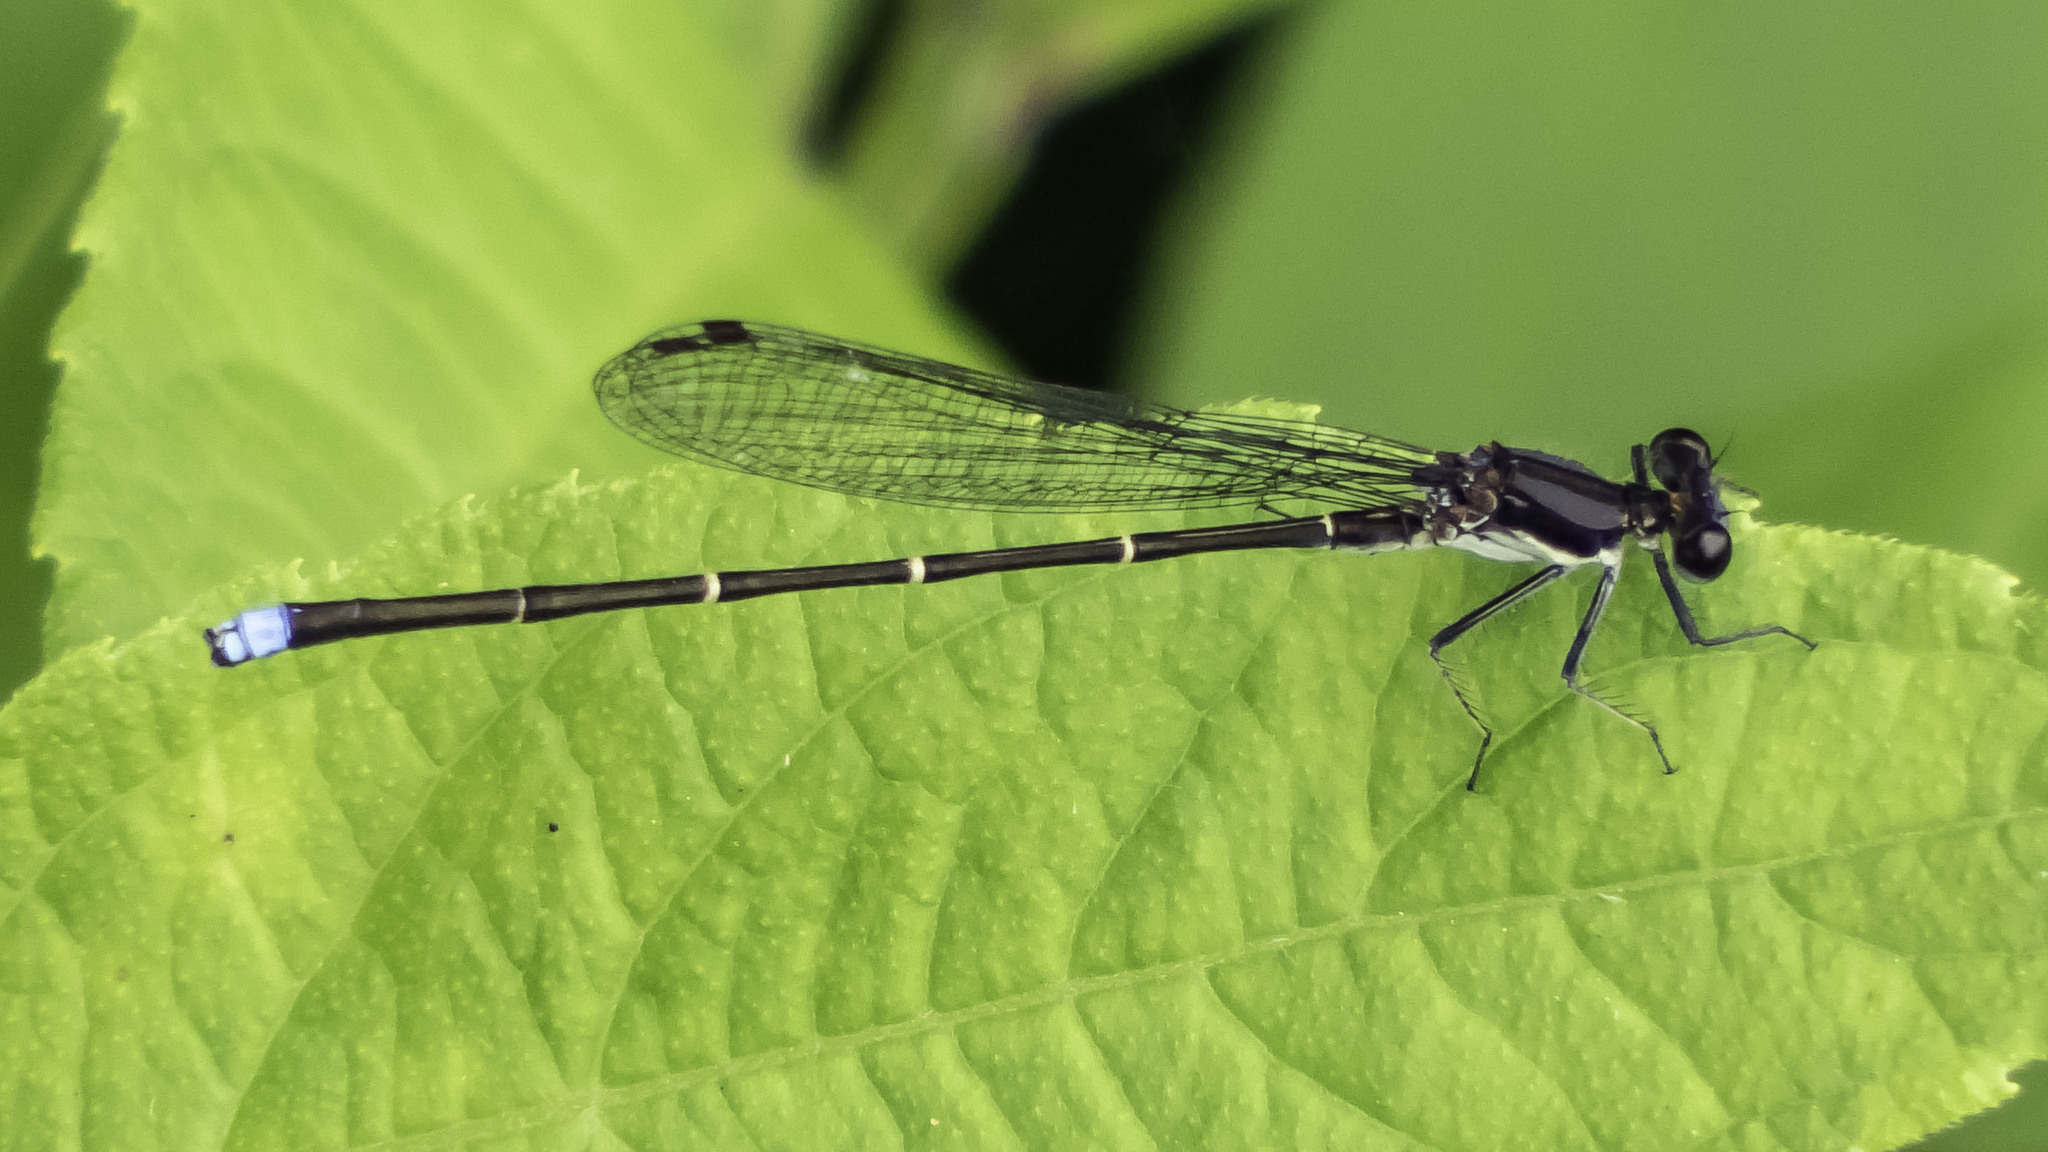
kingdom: Animalia
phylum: Arthropoda
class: Insecta
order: Odonata
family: Coenagrionidae
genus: Argia
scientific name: Argia tibialis
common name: Blue-tipped dancer
